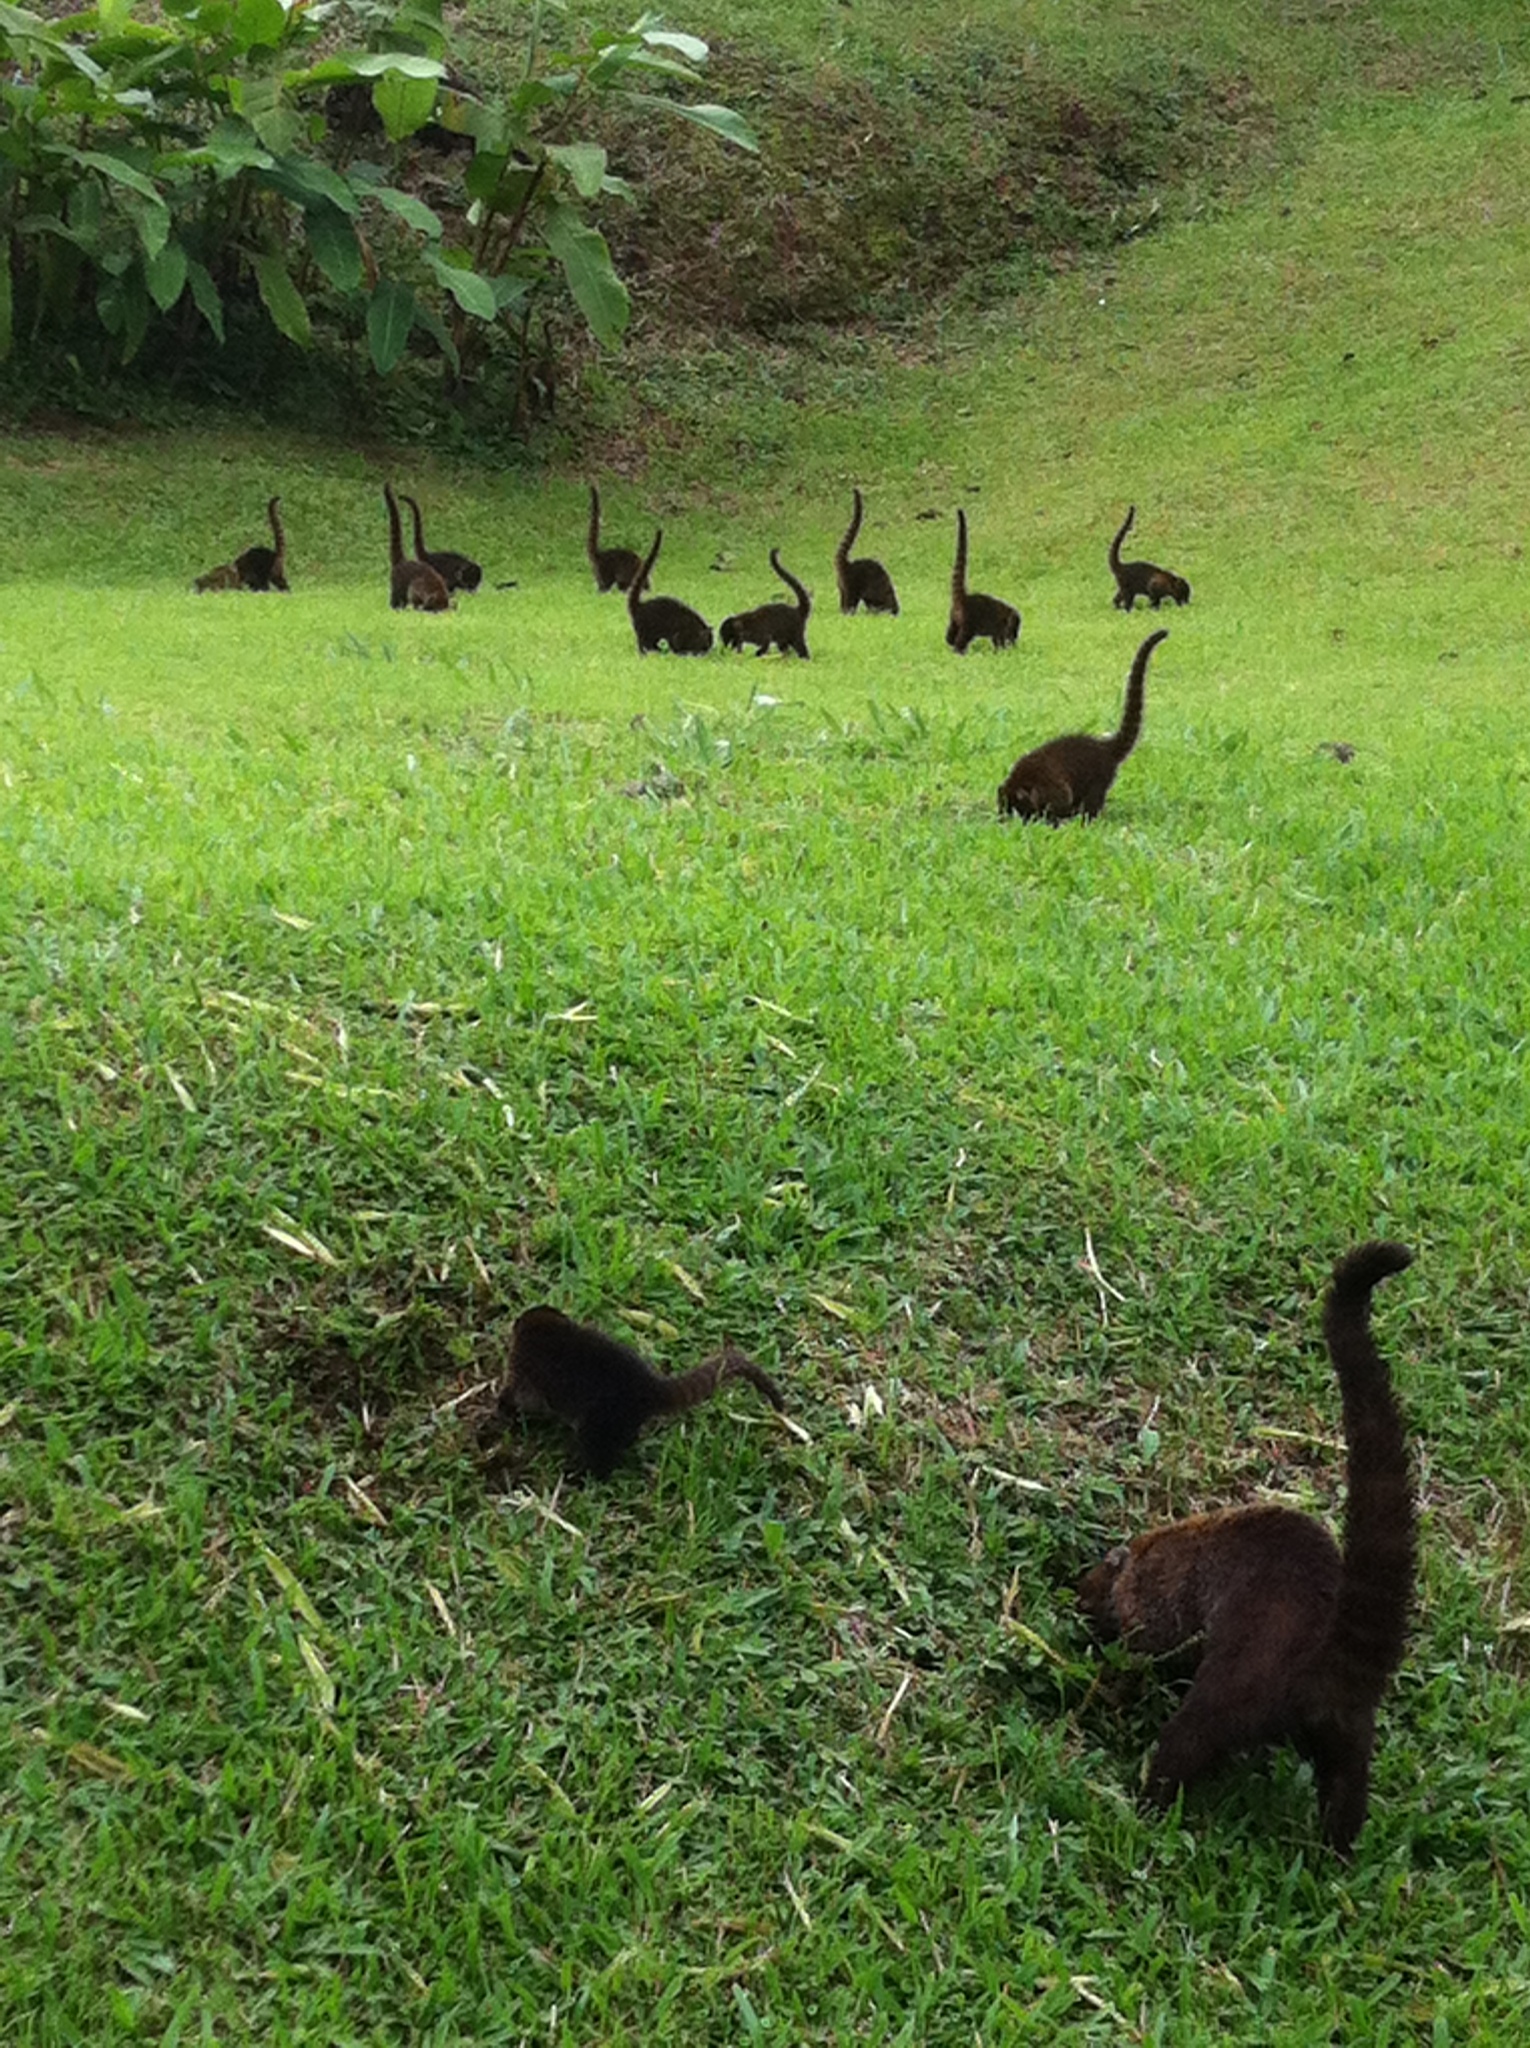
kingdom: Animalia
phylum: Chordata
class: Mammalia
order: Carnivora
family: Procyonidae
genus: Nasua
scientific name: Nasua narica
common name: White-nosed coati
